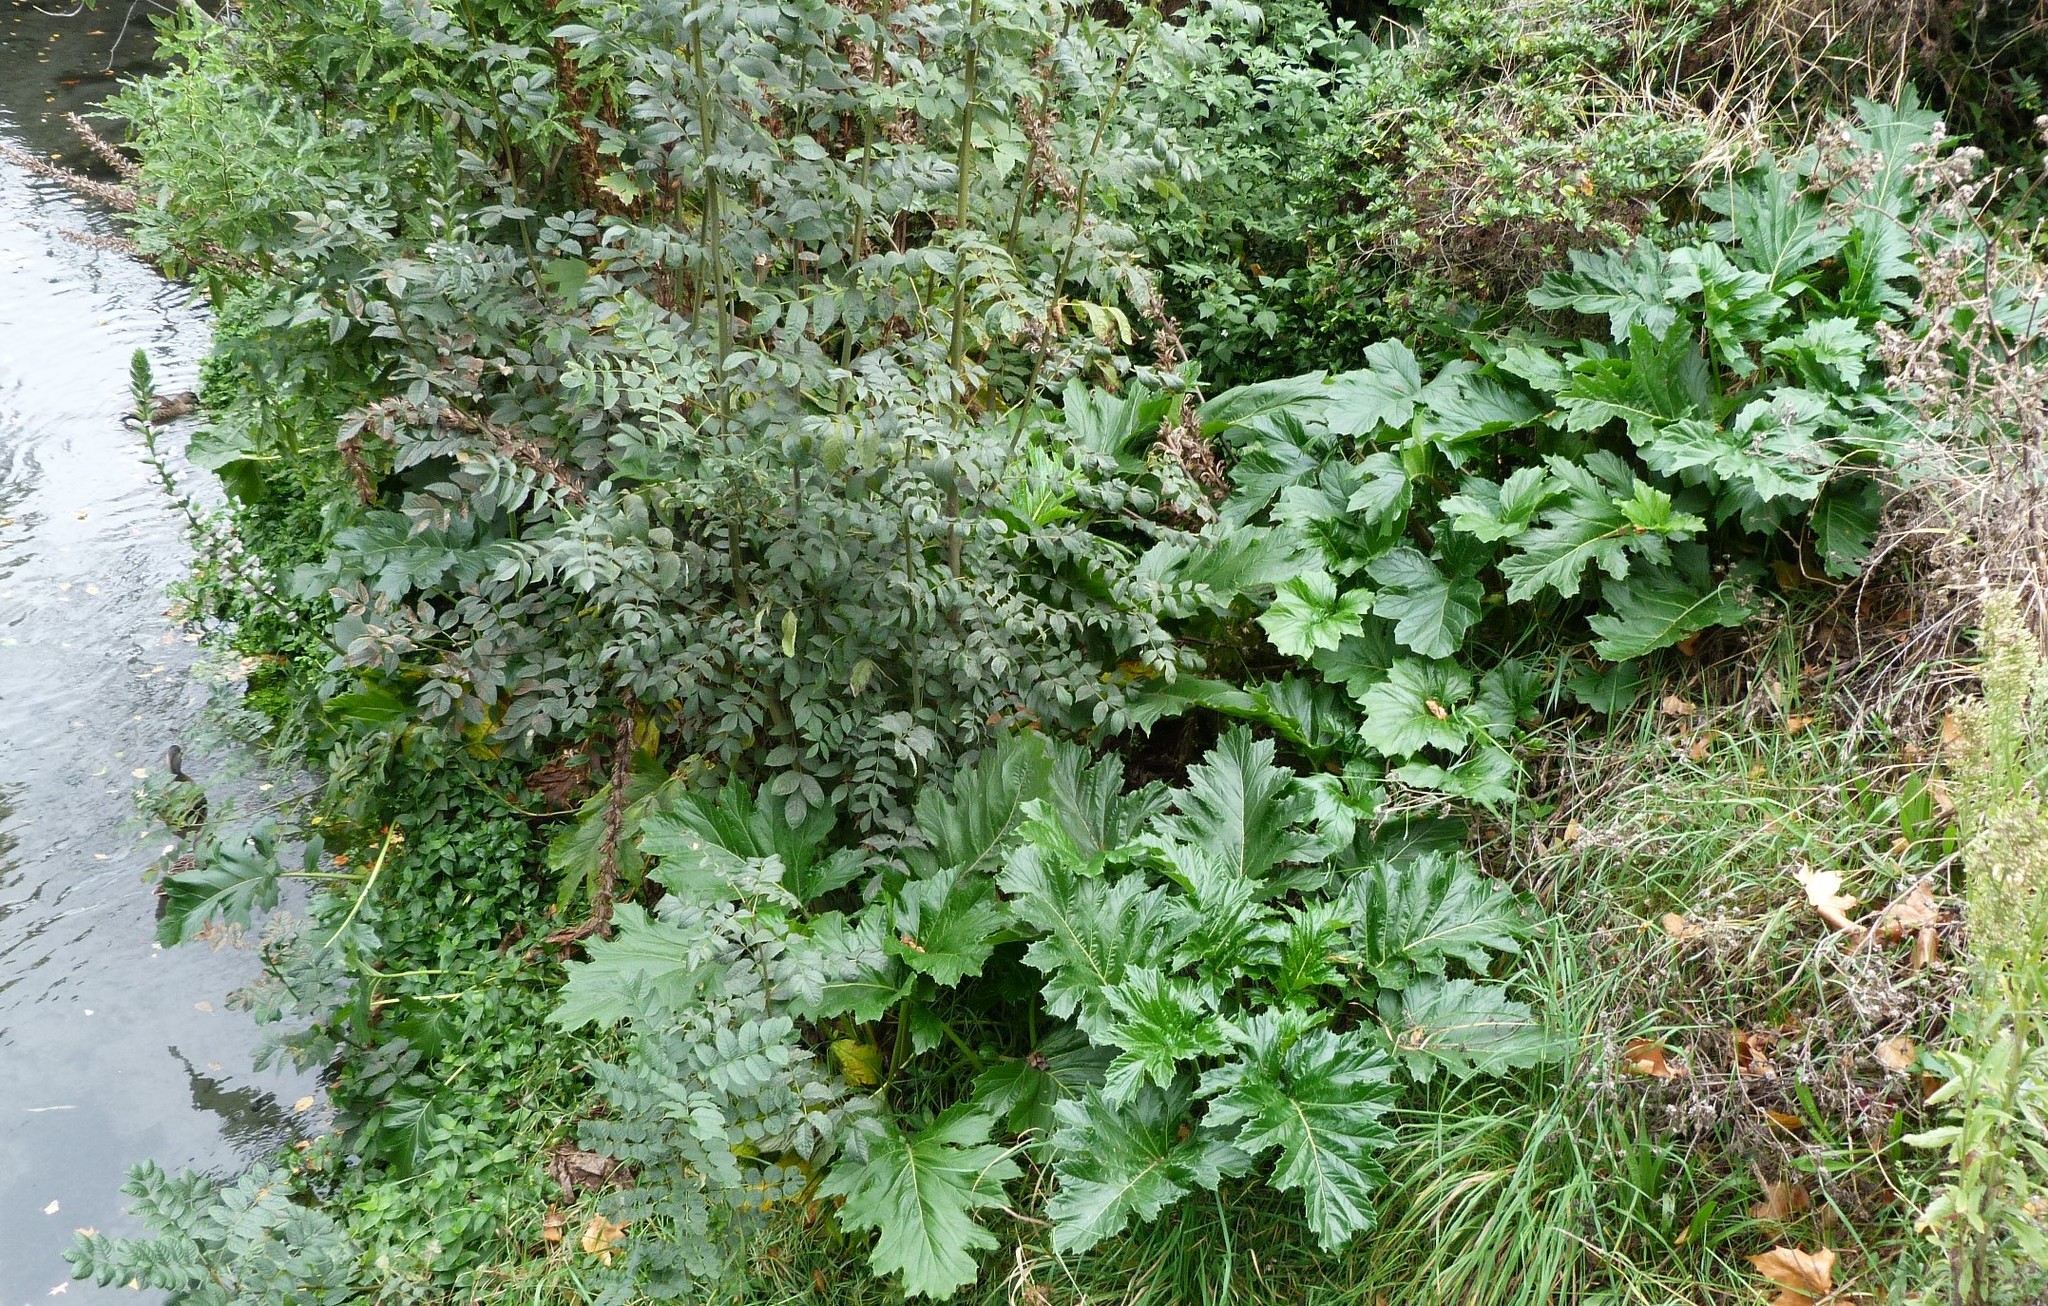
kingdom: Plantae
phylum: Tracheophyta
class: Magnoliopsida
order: Lamiales
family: Acanthaceae
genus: Acanthus
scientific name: Acanthus mollis
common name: Bear's-breech
